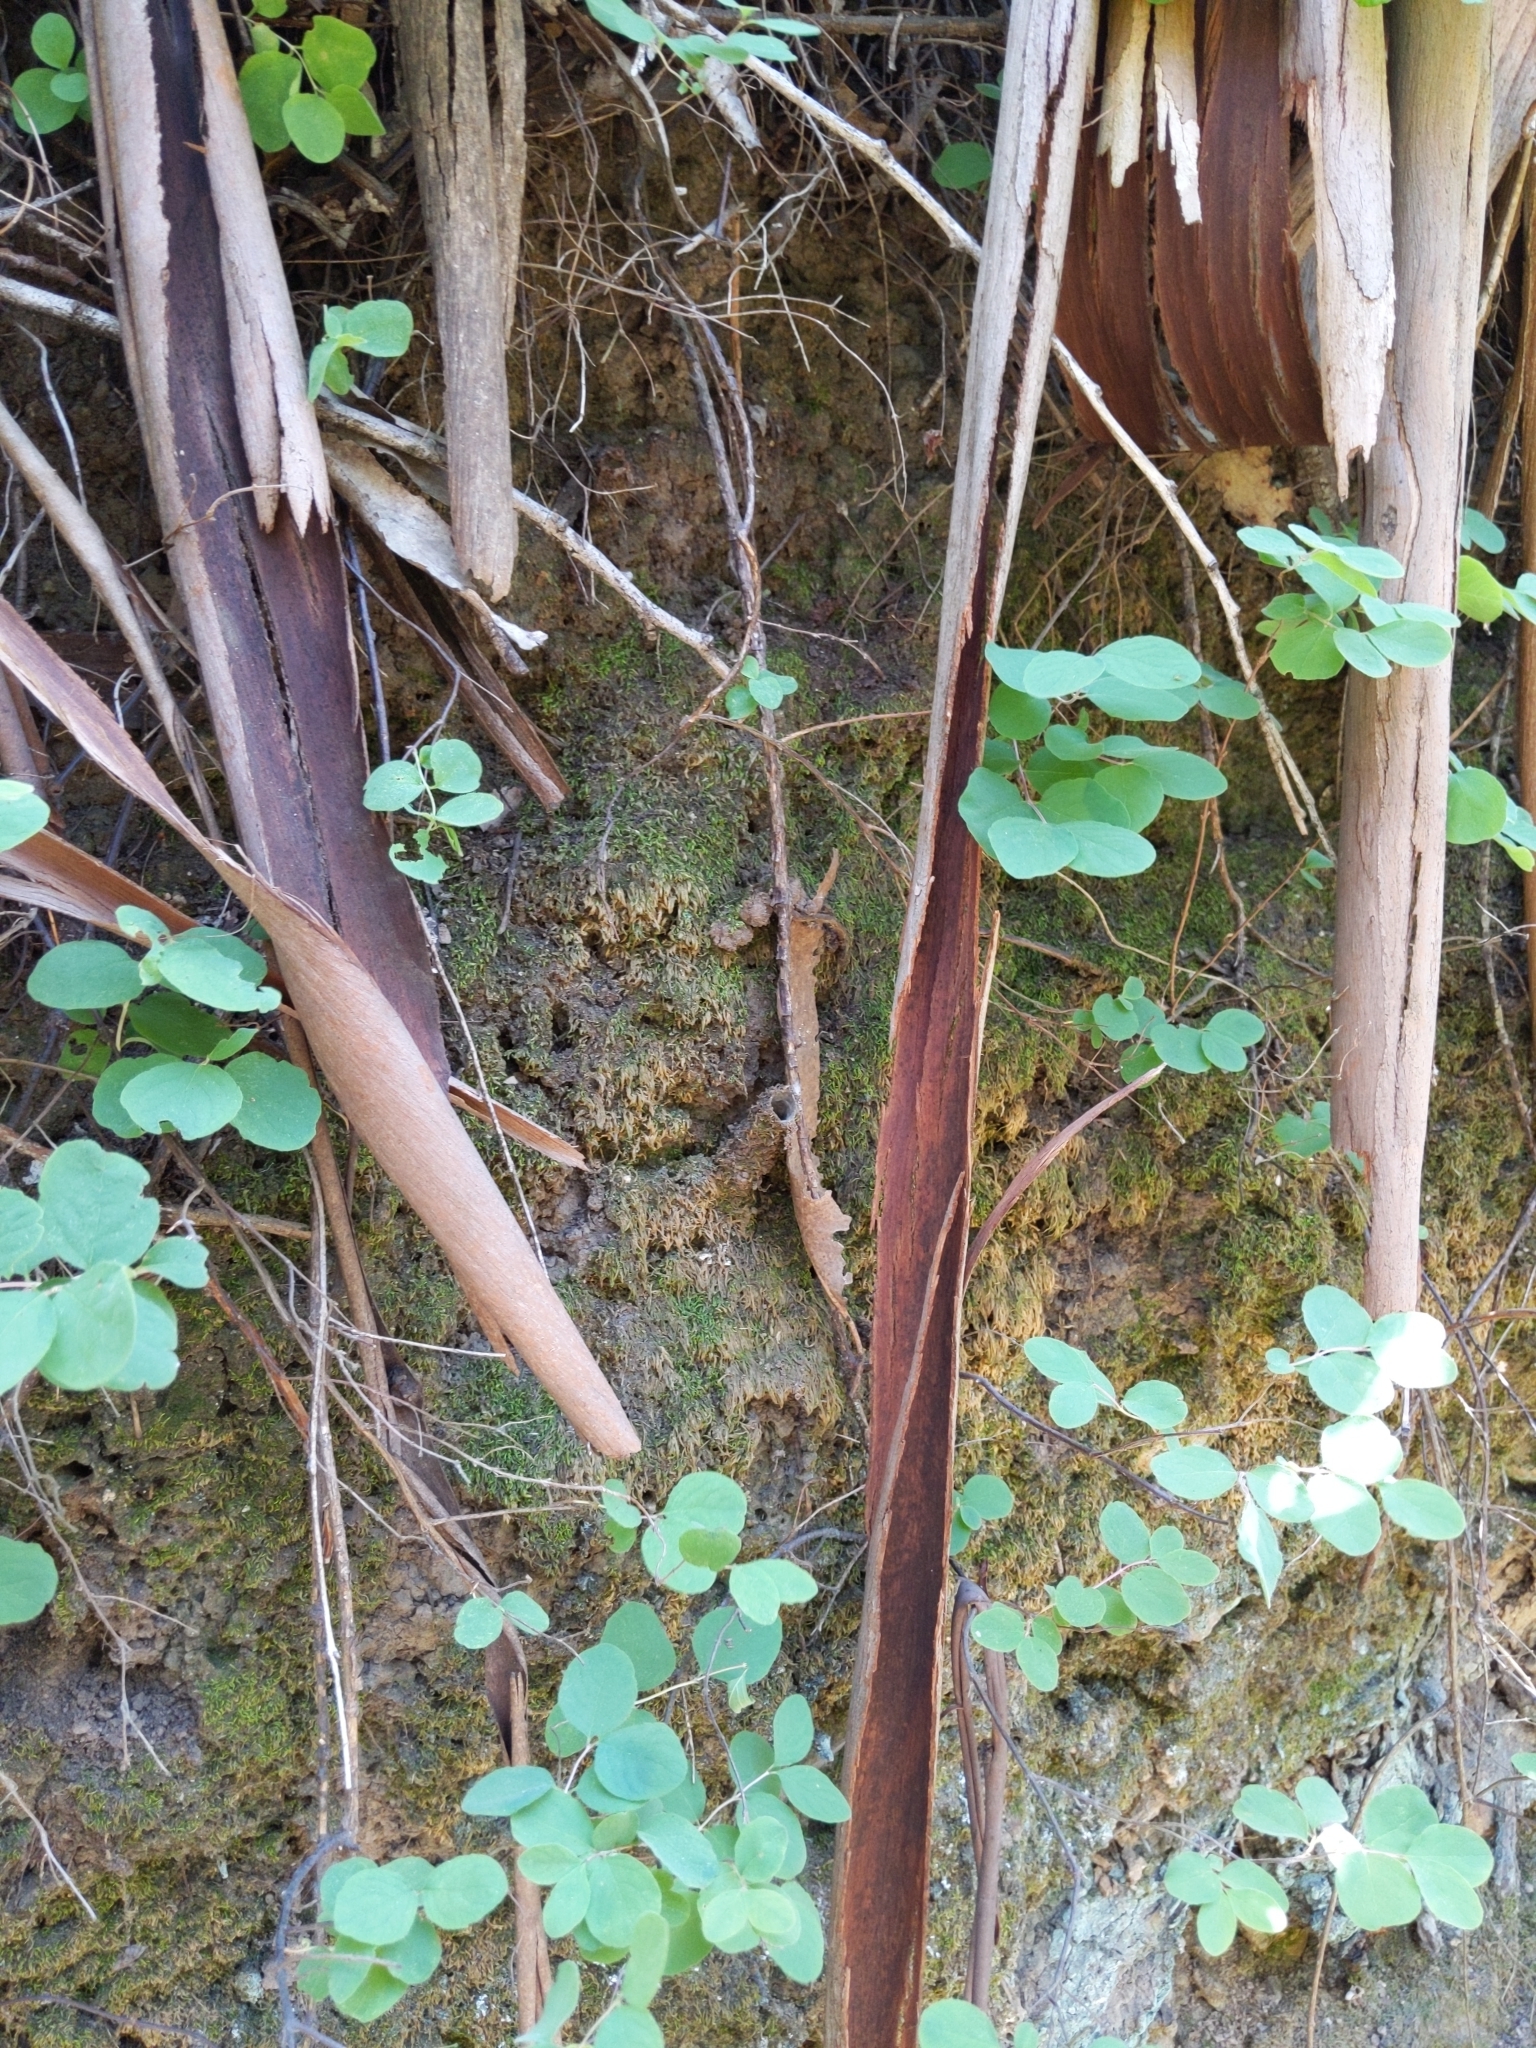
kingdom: Animalia
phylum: Arthropoda
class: Arachnida
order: Araneae
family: Antrodiaetidae
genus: Atypoides
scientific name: Atypoides riversi
